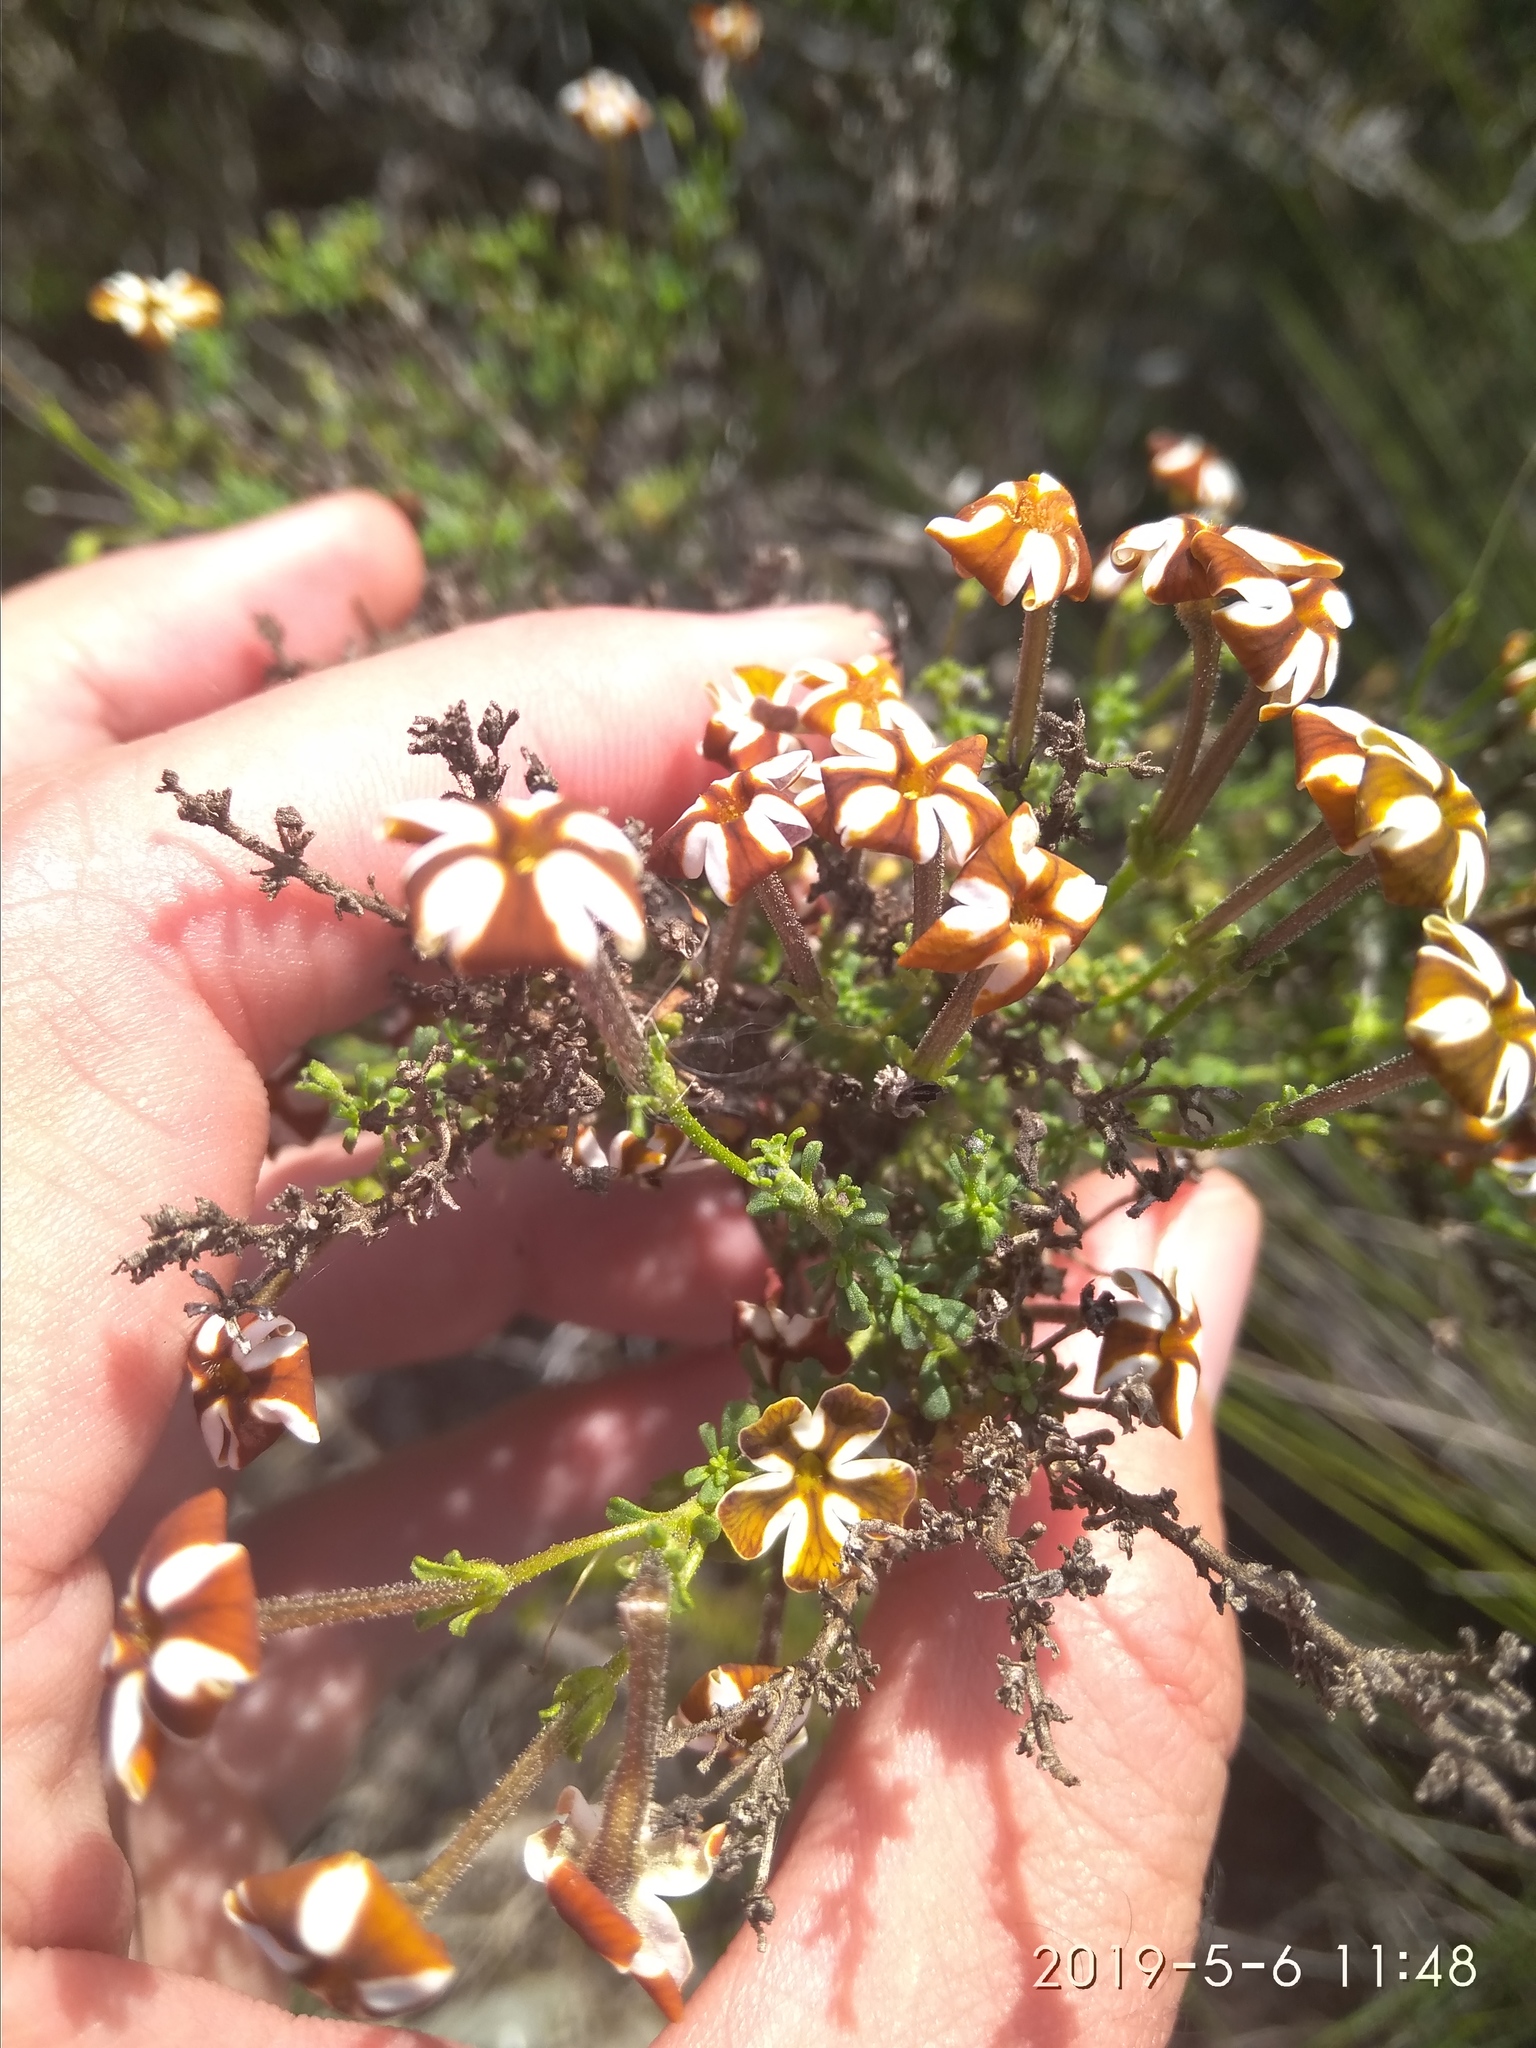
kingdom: Plantae
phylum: Tracheophyta
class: Magnoliopsida
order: Lamiales
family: Scrophulariaceae
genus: Jamesbrittenia
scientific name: Jamesbrittenia albomarginata
